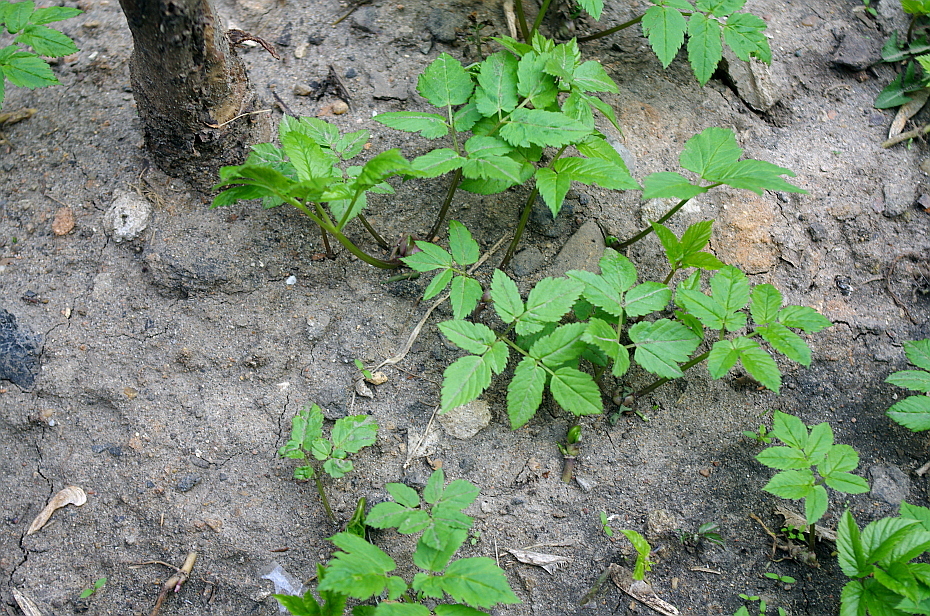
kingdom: Plantae
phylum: Tracheophyta
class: Magnoliopsida
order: Apiales
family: Apiaceae
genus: Aegopodium
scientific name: Aegopodium podagraria
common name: Ground-elder
